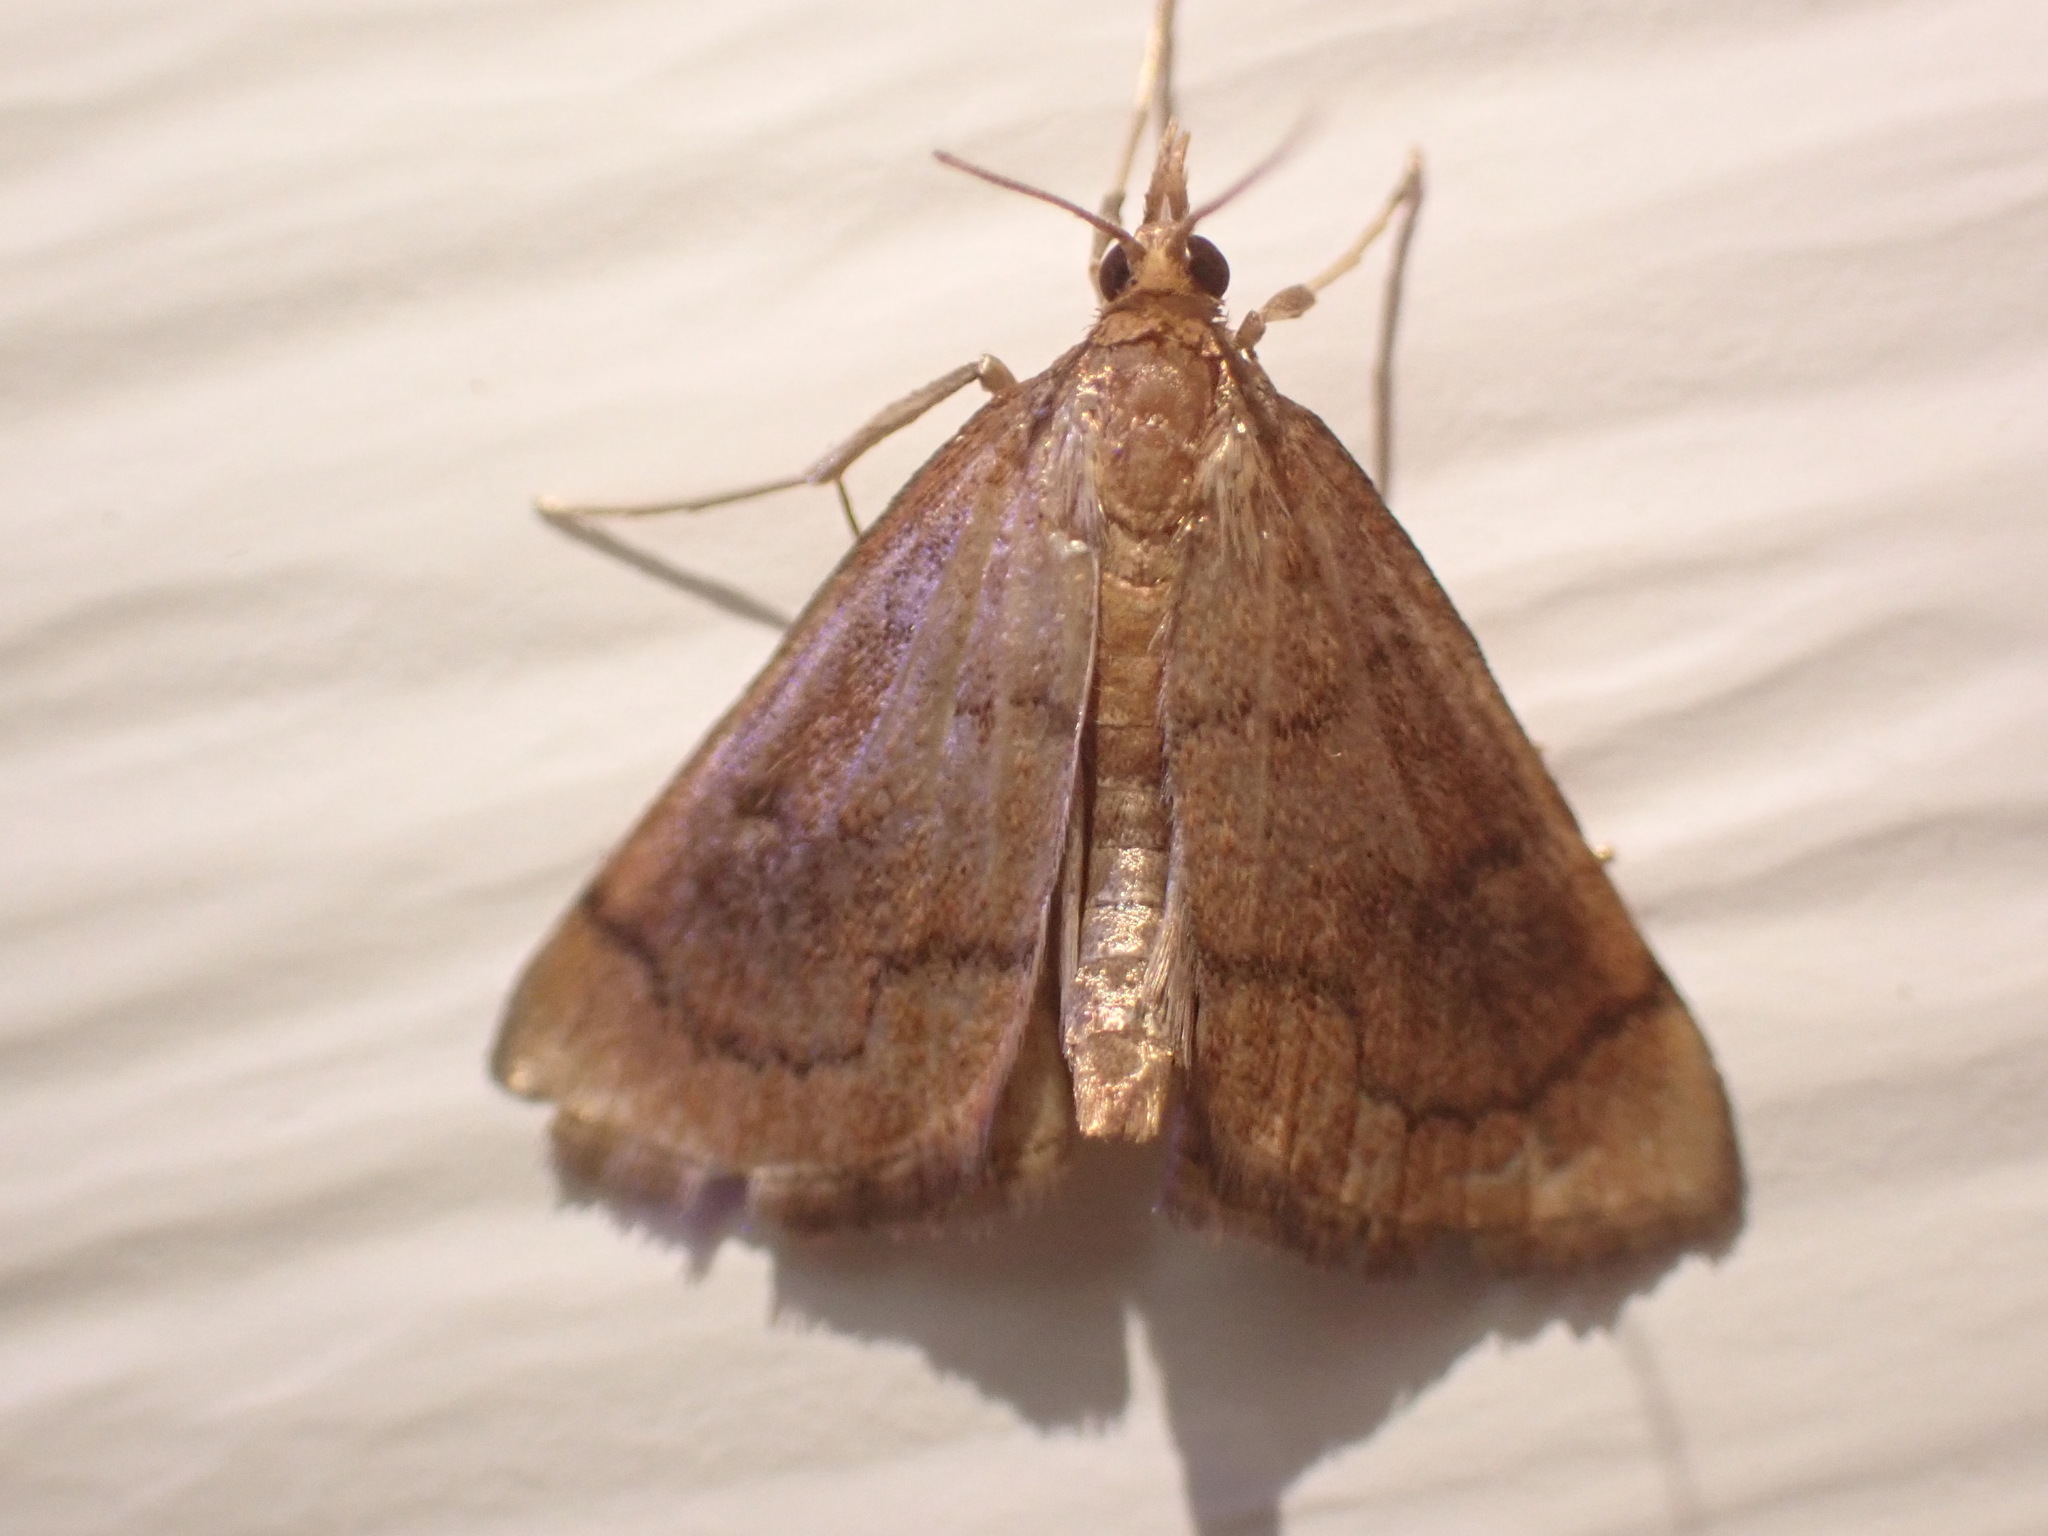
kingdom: Animalia
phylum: Arthropoda
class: Insecta
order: Lepidoptera
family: Crambidae
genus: Fumibotys
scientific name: Fumibotys fumalis
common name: Mint root borer moth
